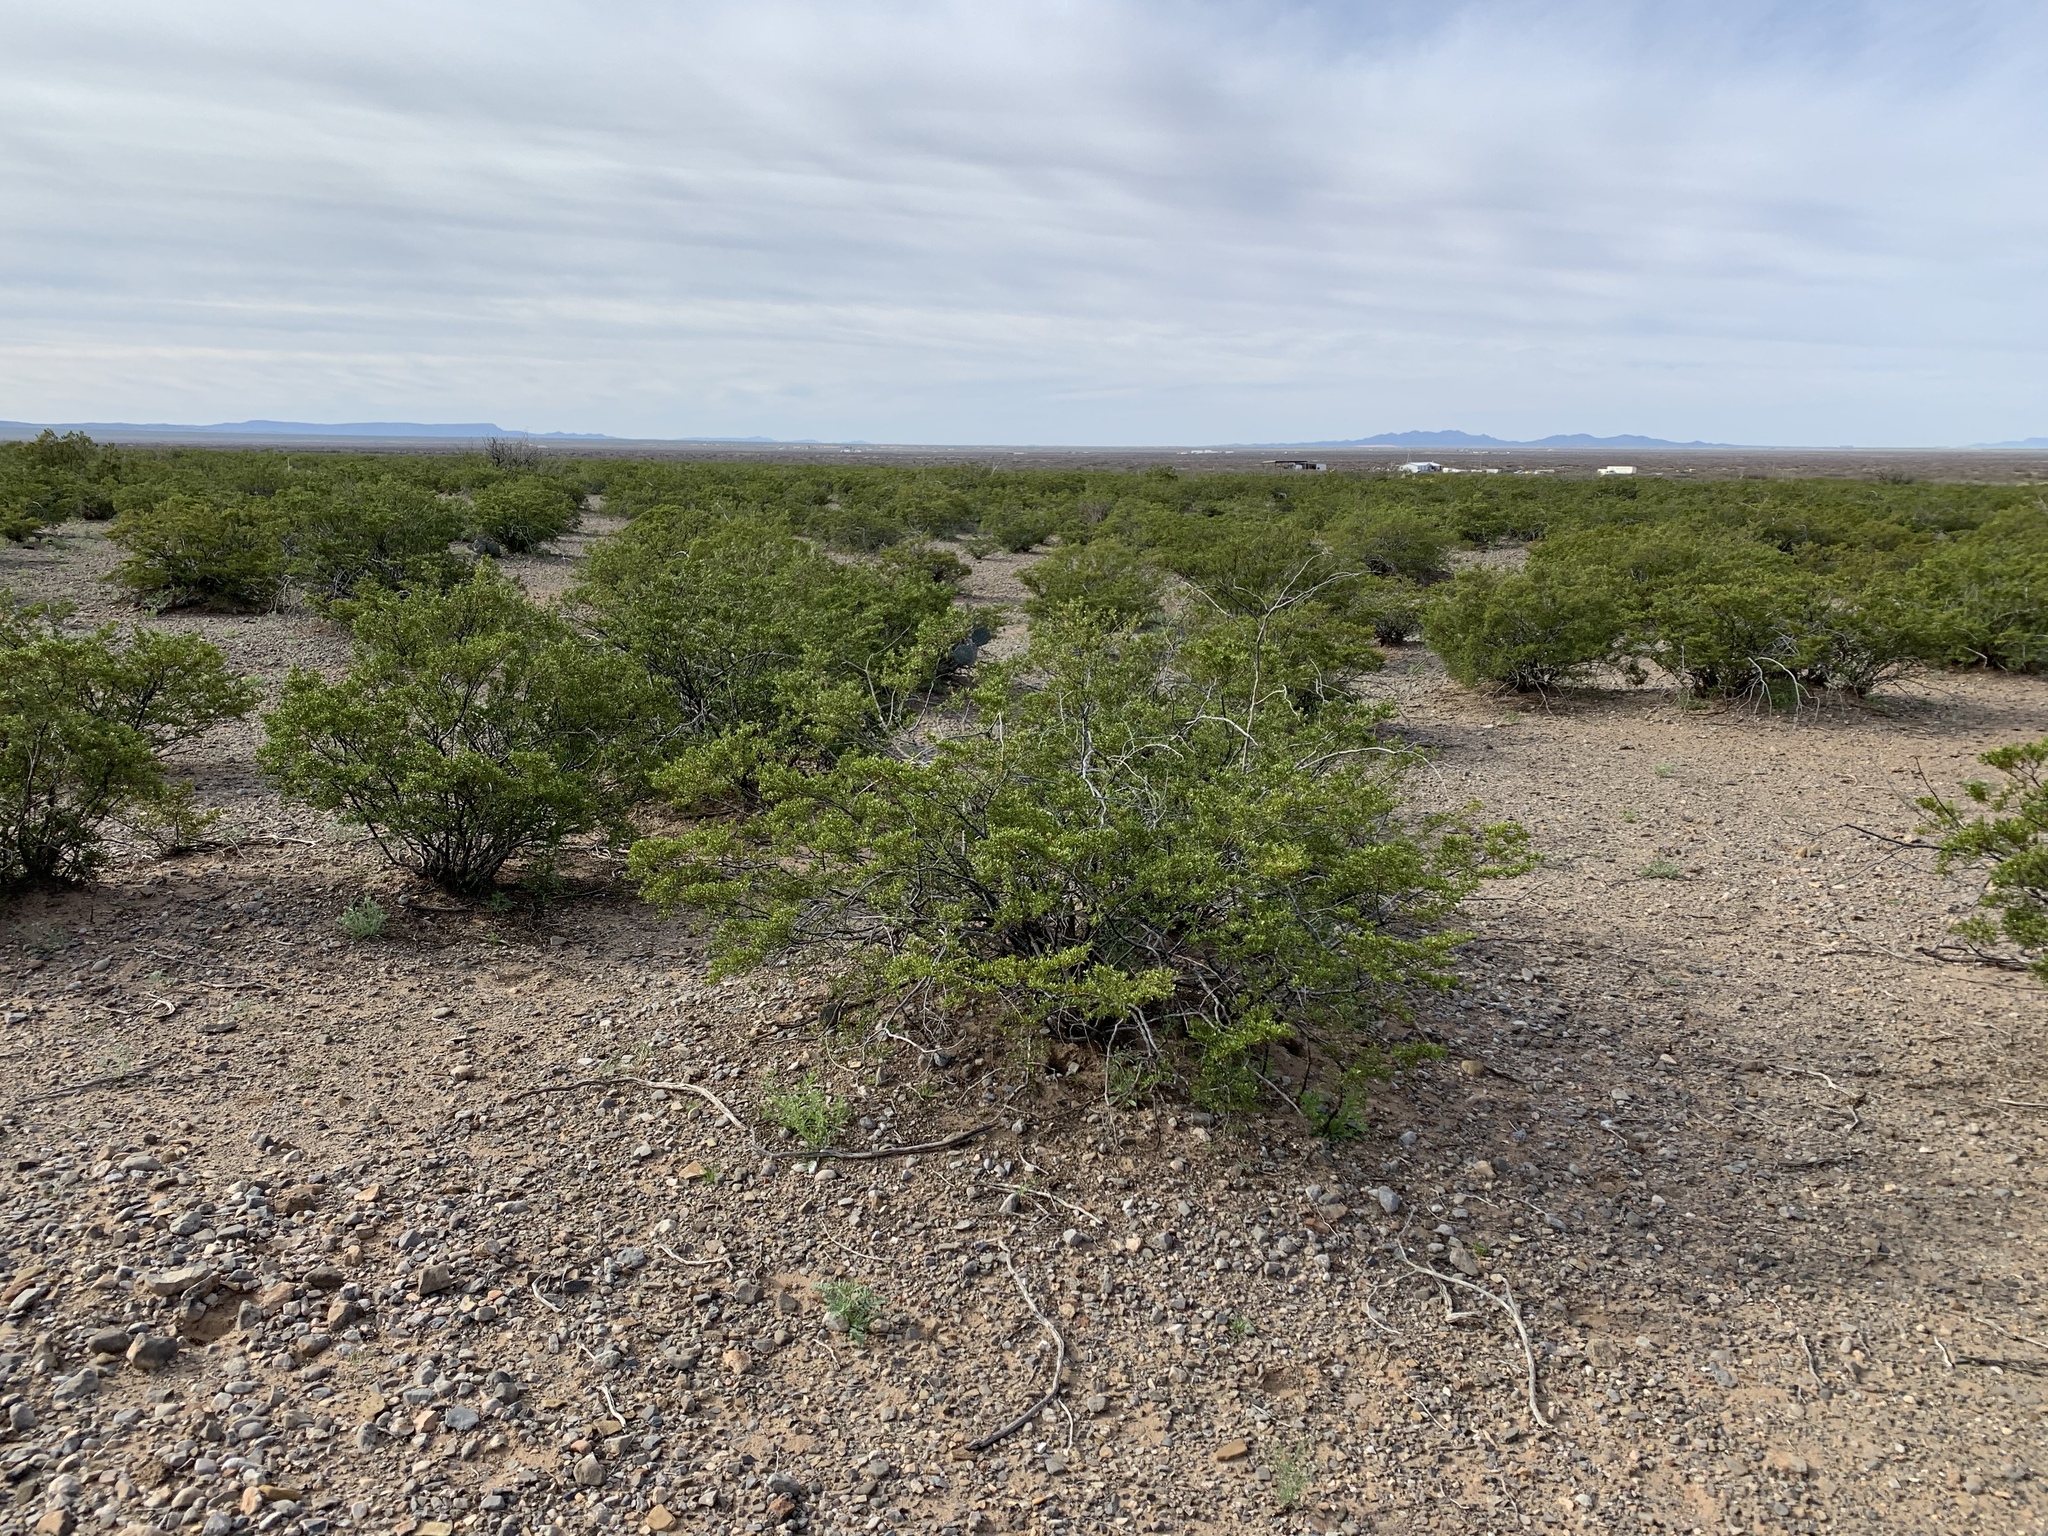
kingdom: Plantae
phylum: Tracheophyta
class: Magnoliopsida
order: Zygophyllales
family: Zygophyllaceae
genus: Larrea
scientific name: Larrea tridentata
